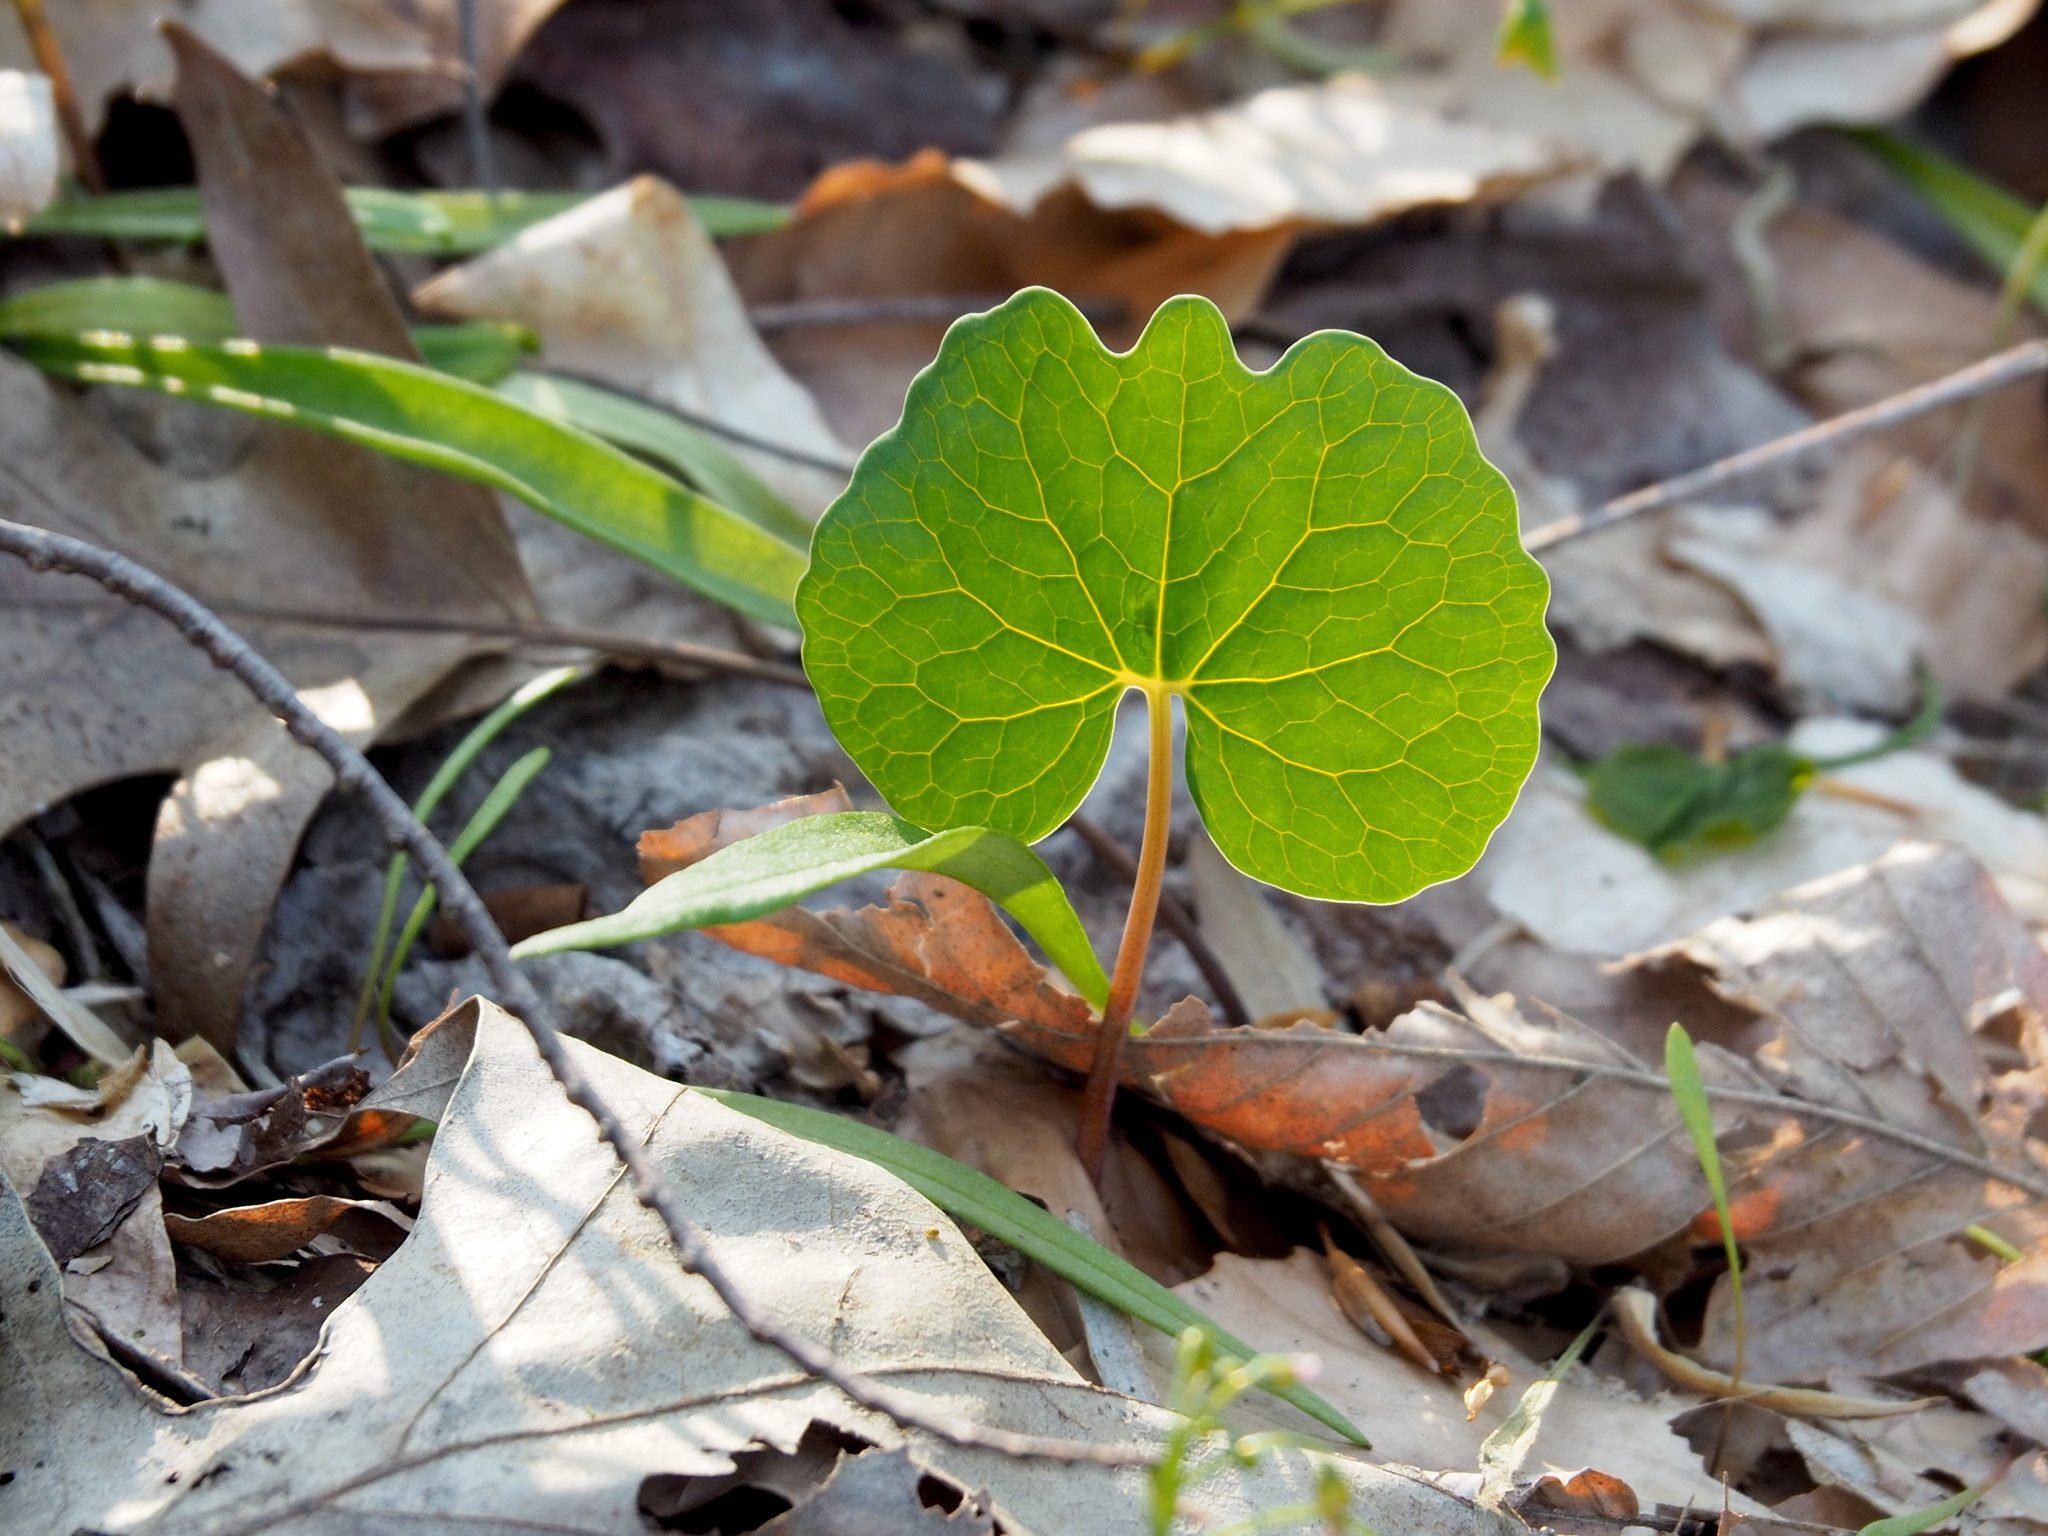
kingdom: Plantae
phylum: Tracheophyta
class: Magnoliopsida
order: Ranunculales
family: Papaveraceae
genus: Sanguinaria
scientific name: Sanguinaria canadensis
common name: Bloodroot
